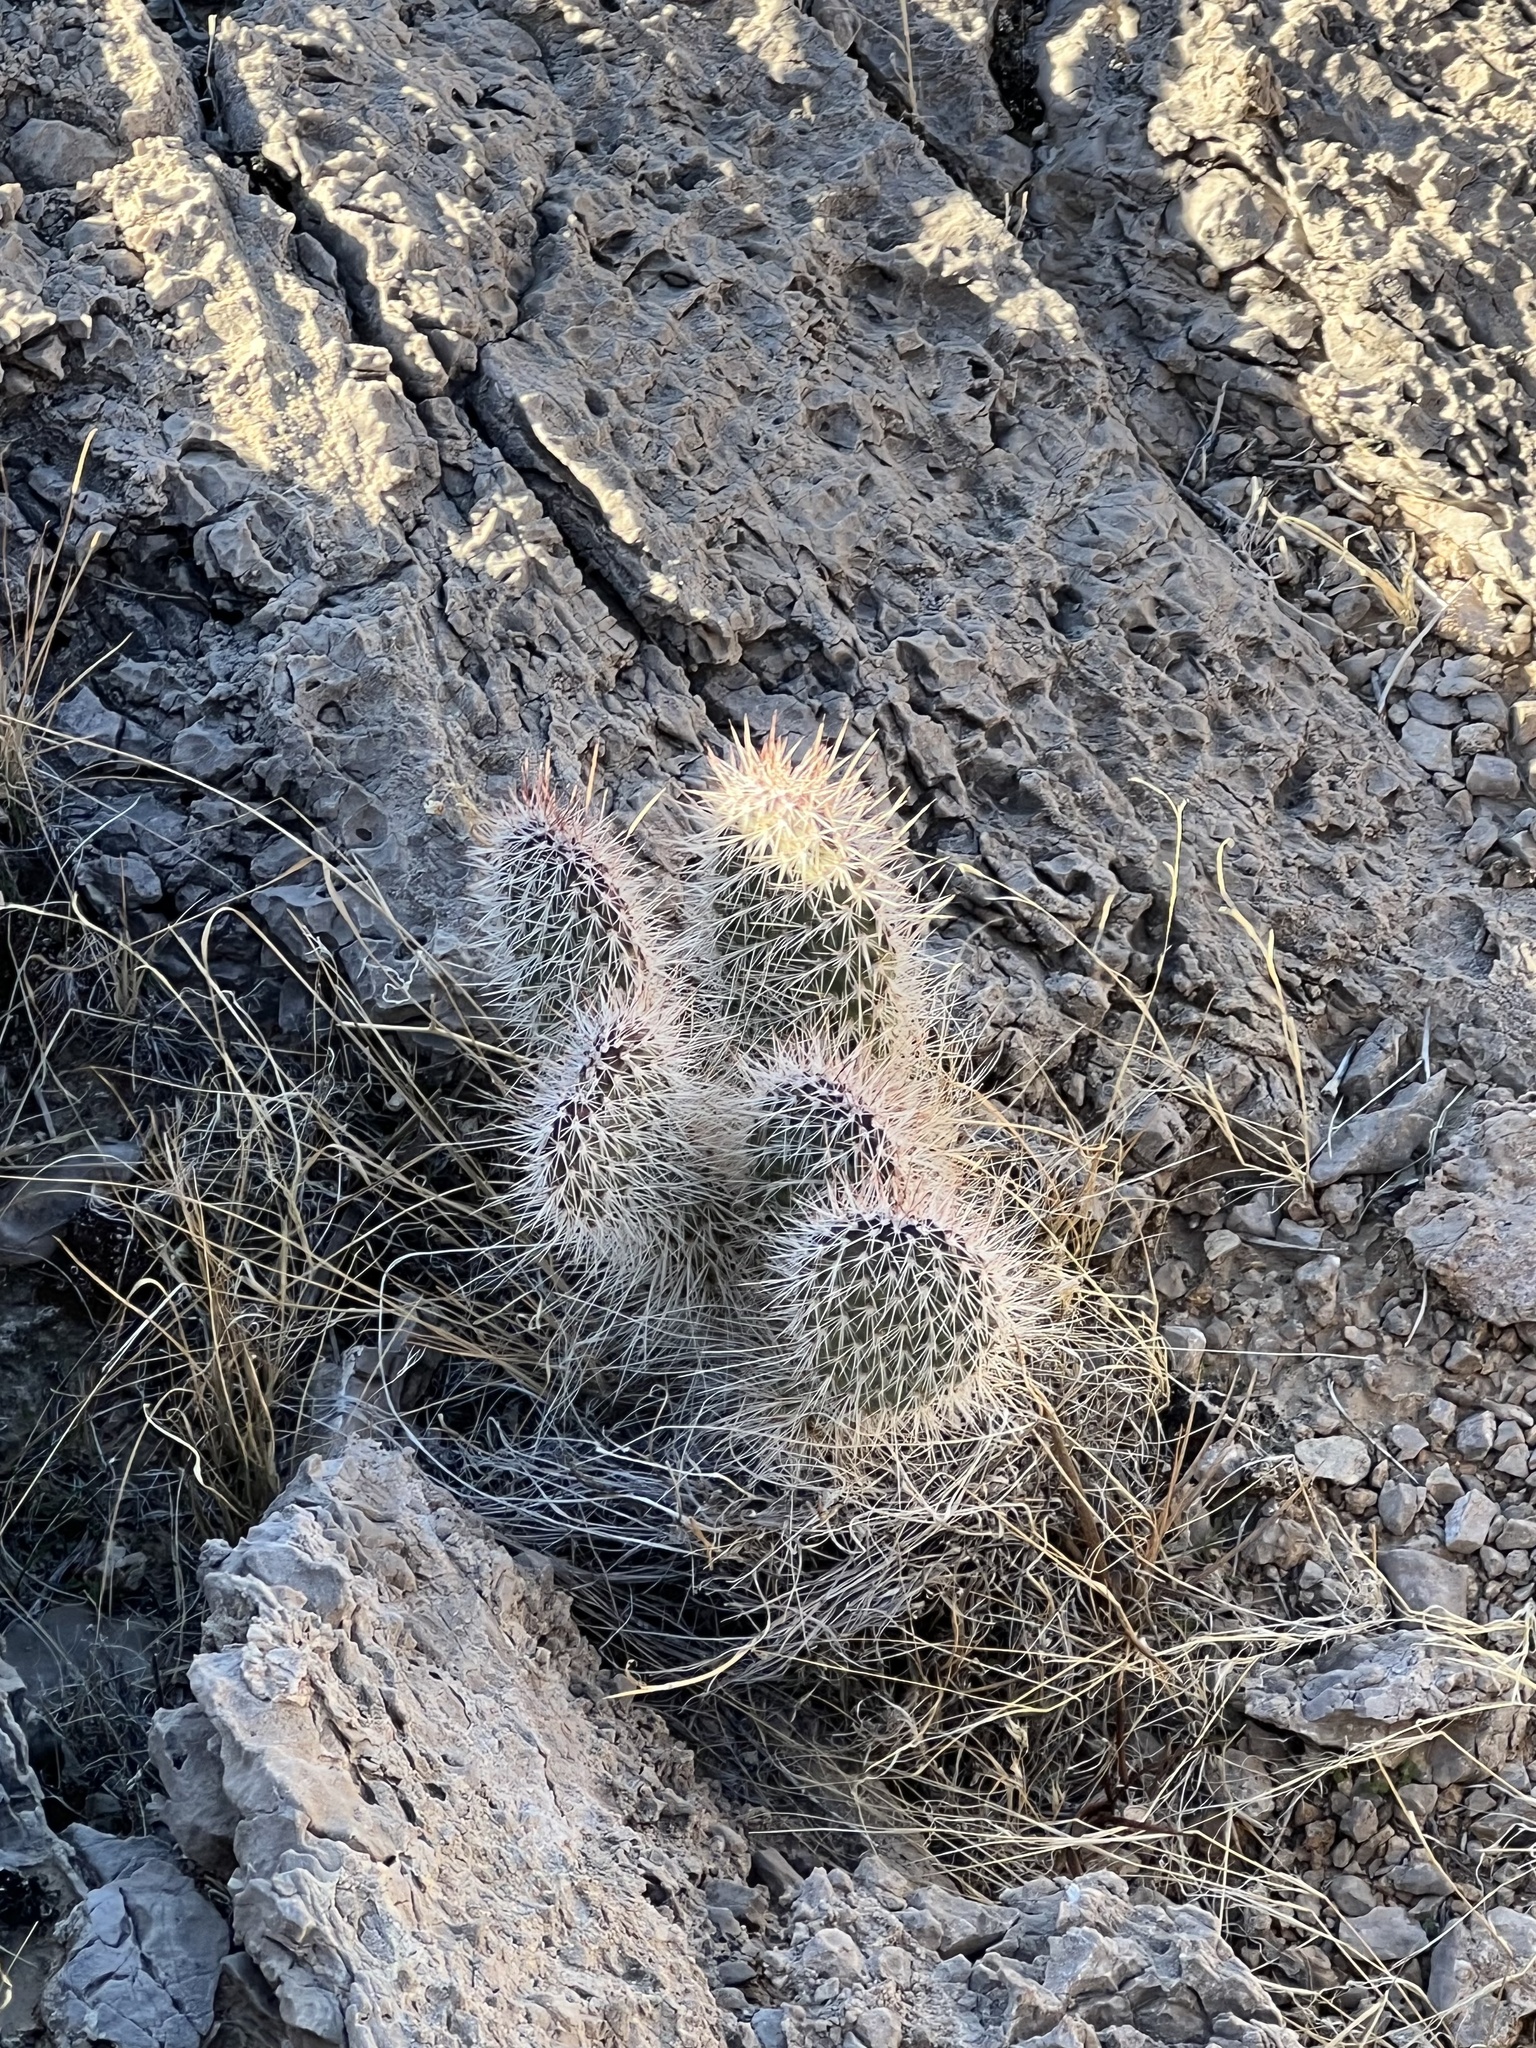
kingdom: Plantae
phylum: Tracheophyta
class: Magnoliopsida
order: Caryophyllales
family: Cactaceae
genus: Opuntia
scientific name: Opuntia polyacantha
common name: Plains prickly-pear
